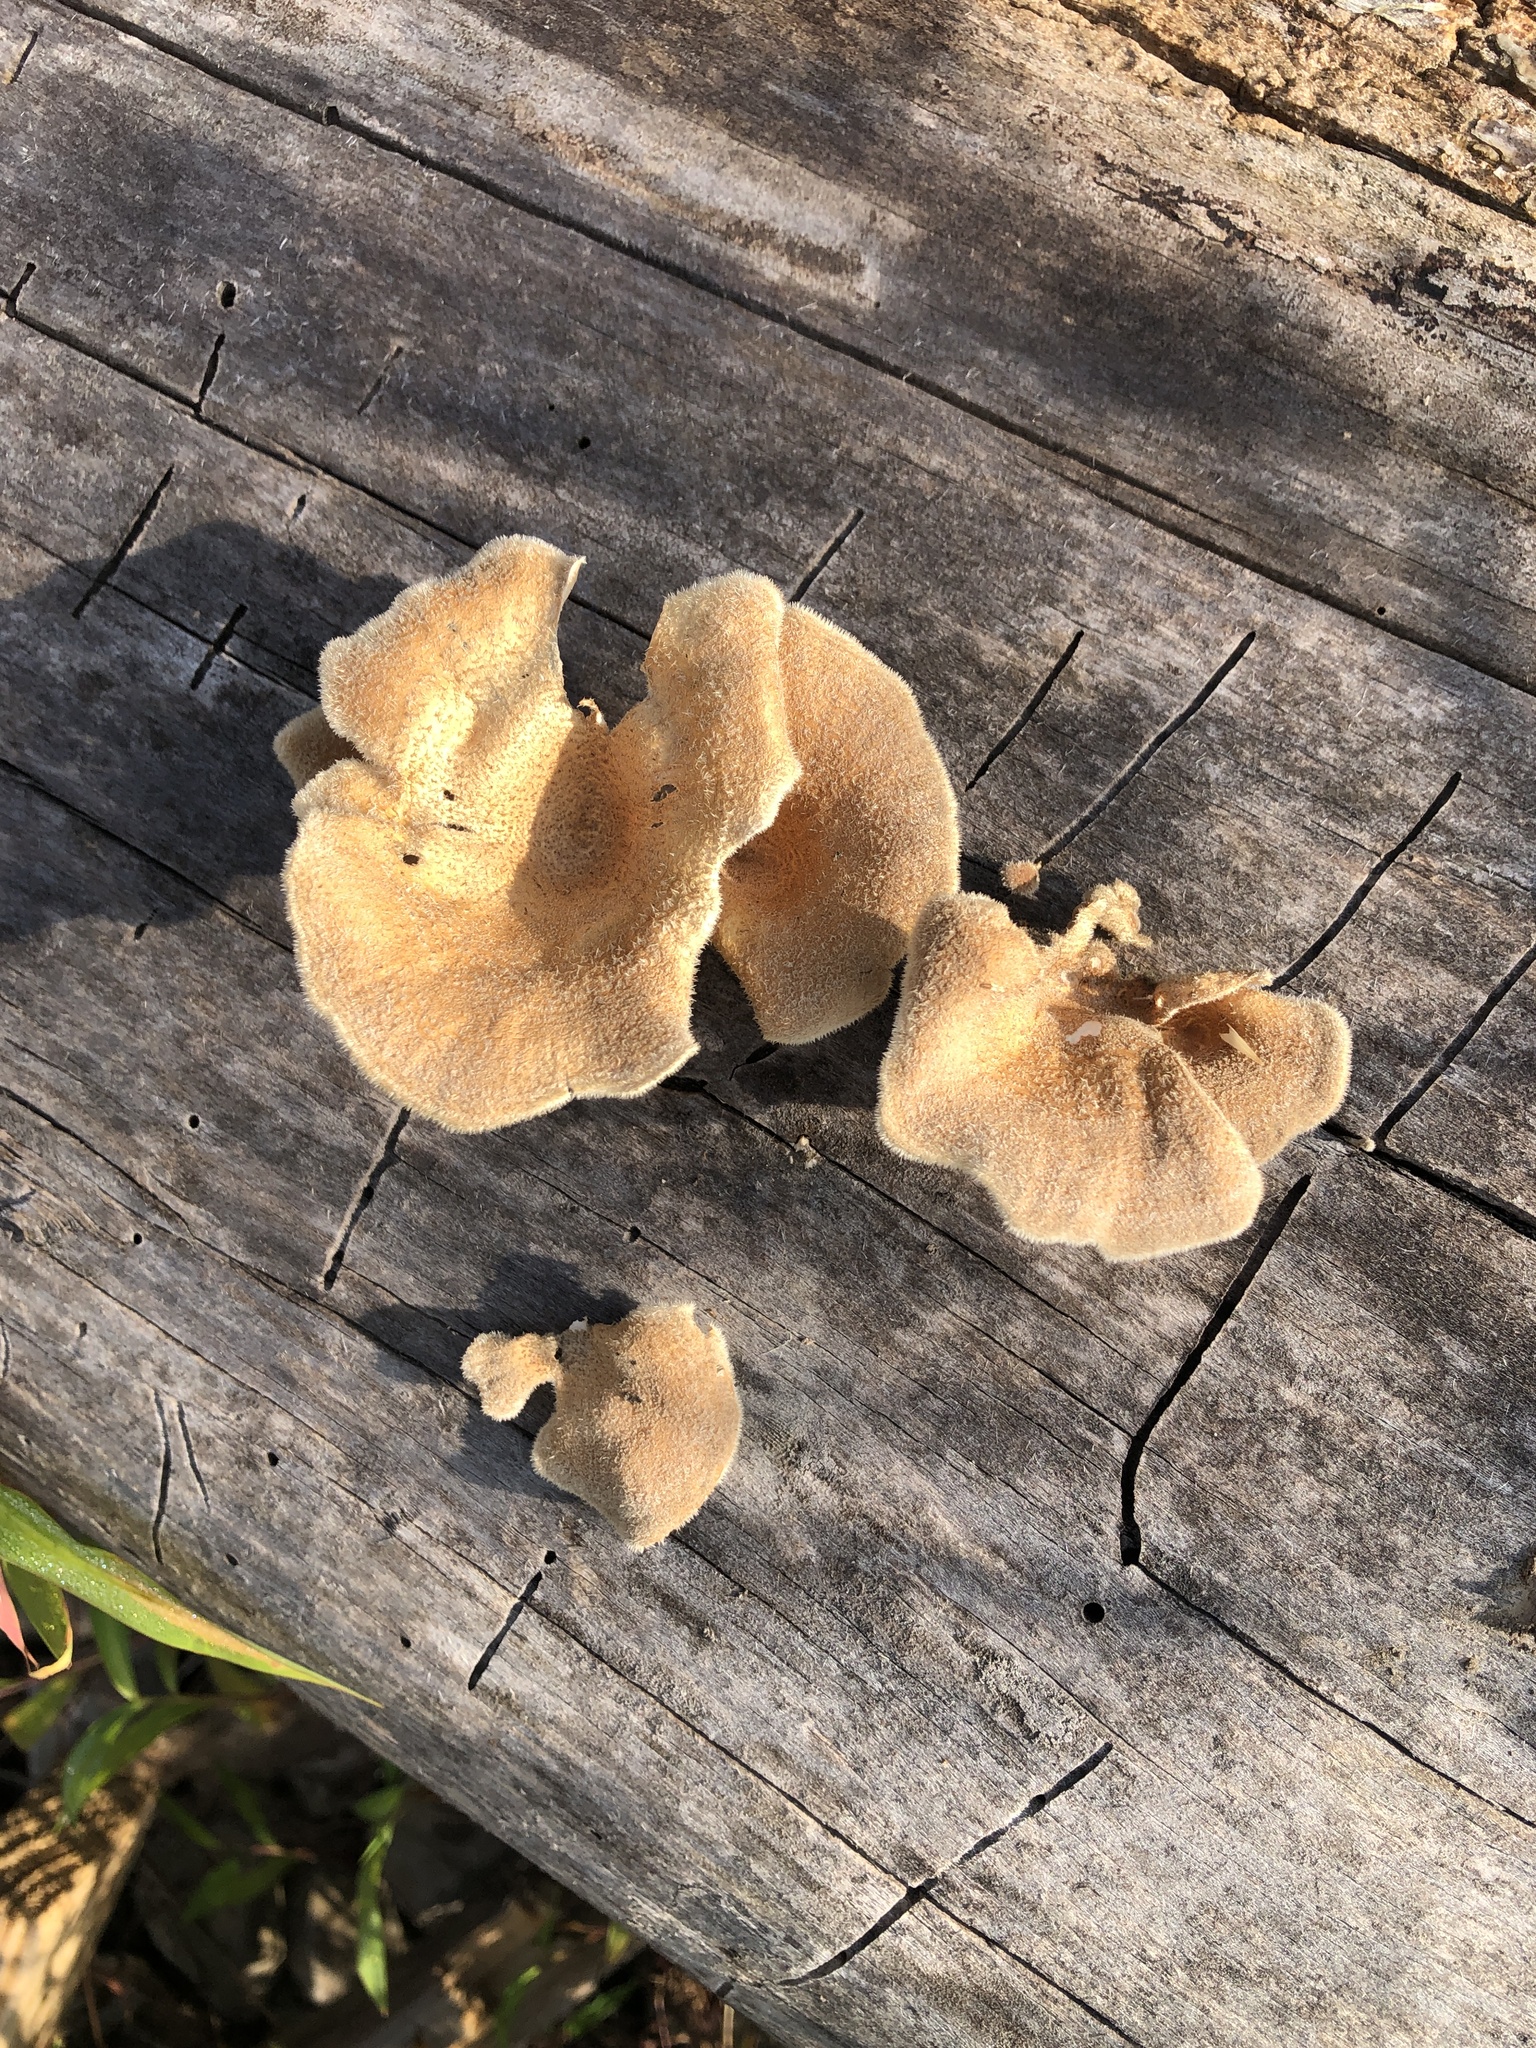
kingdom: Fungi
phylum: Basidiomycota
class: Agaricomycetes
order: Polyporales
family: Panaceae
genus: Panus
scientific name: Panus neostrigosus
